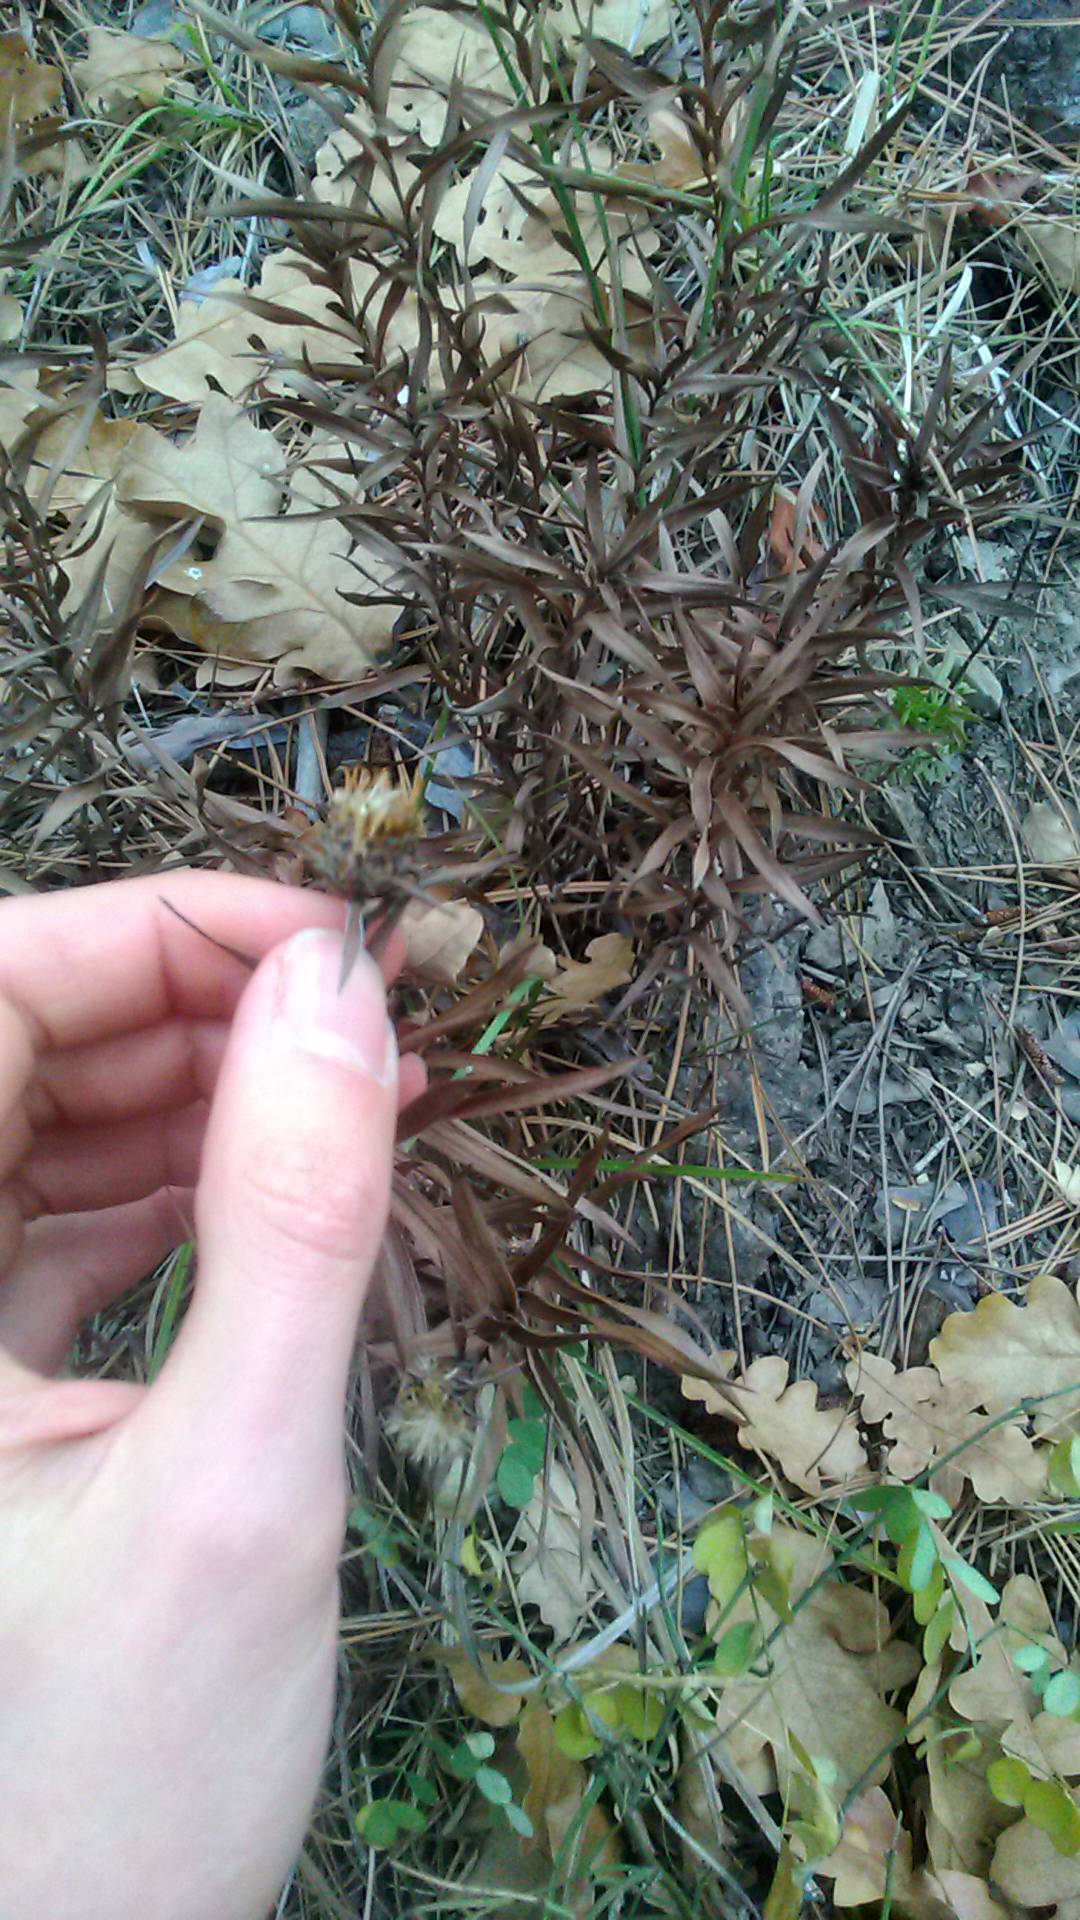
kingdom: Plantae
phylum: Tracheophyta
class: Magnoliopsida
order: Asterales
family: Asteraceae
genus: Pentanema
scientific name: Pentanema ensifolium
